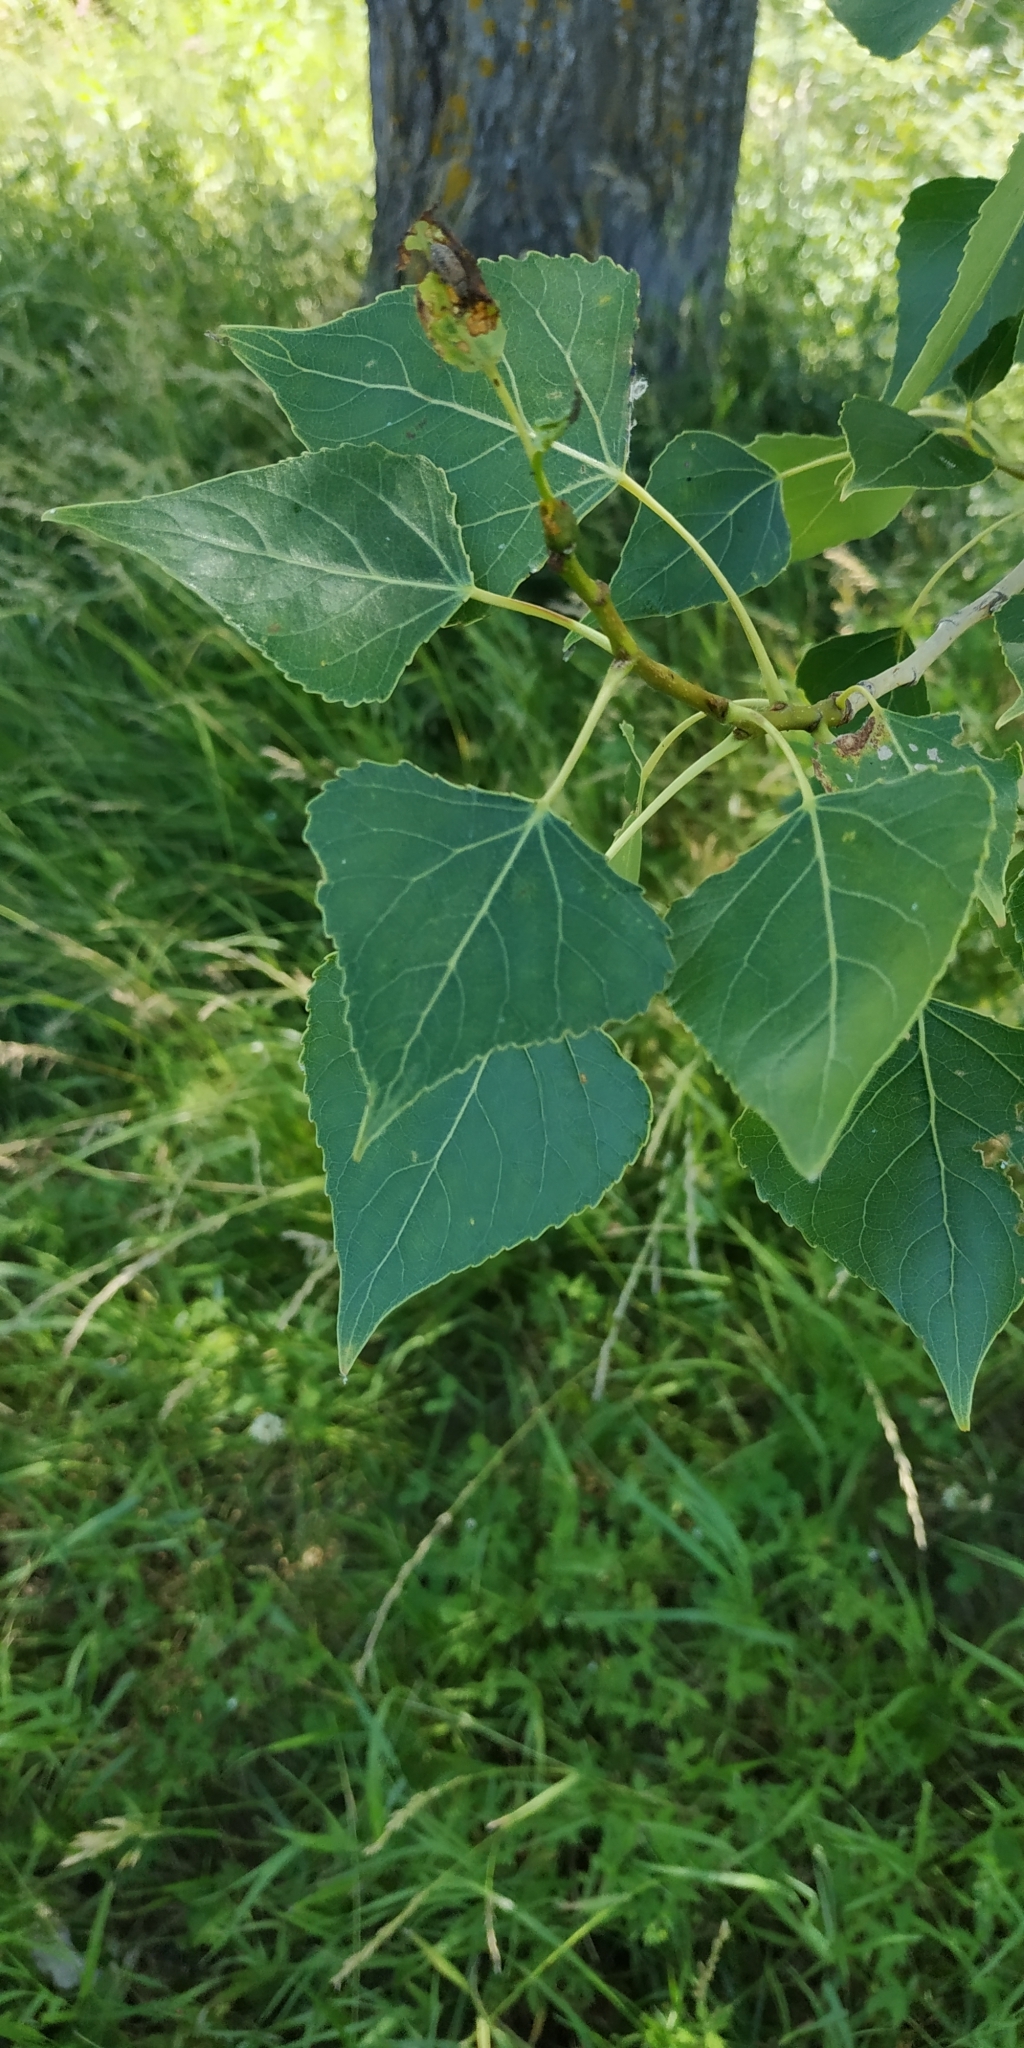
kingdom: Plantae
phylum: Tracheophyta
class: Magnoliopsida
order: Malpighiales
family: Salicaceae
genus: Populus
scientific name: Populus nigra
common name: Black poplar
